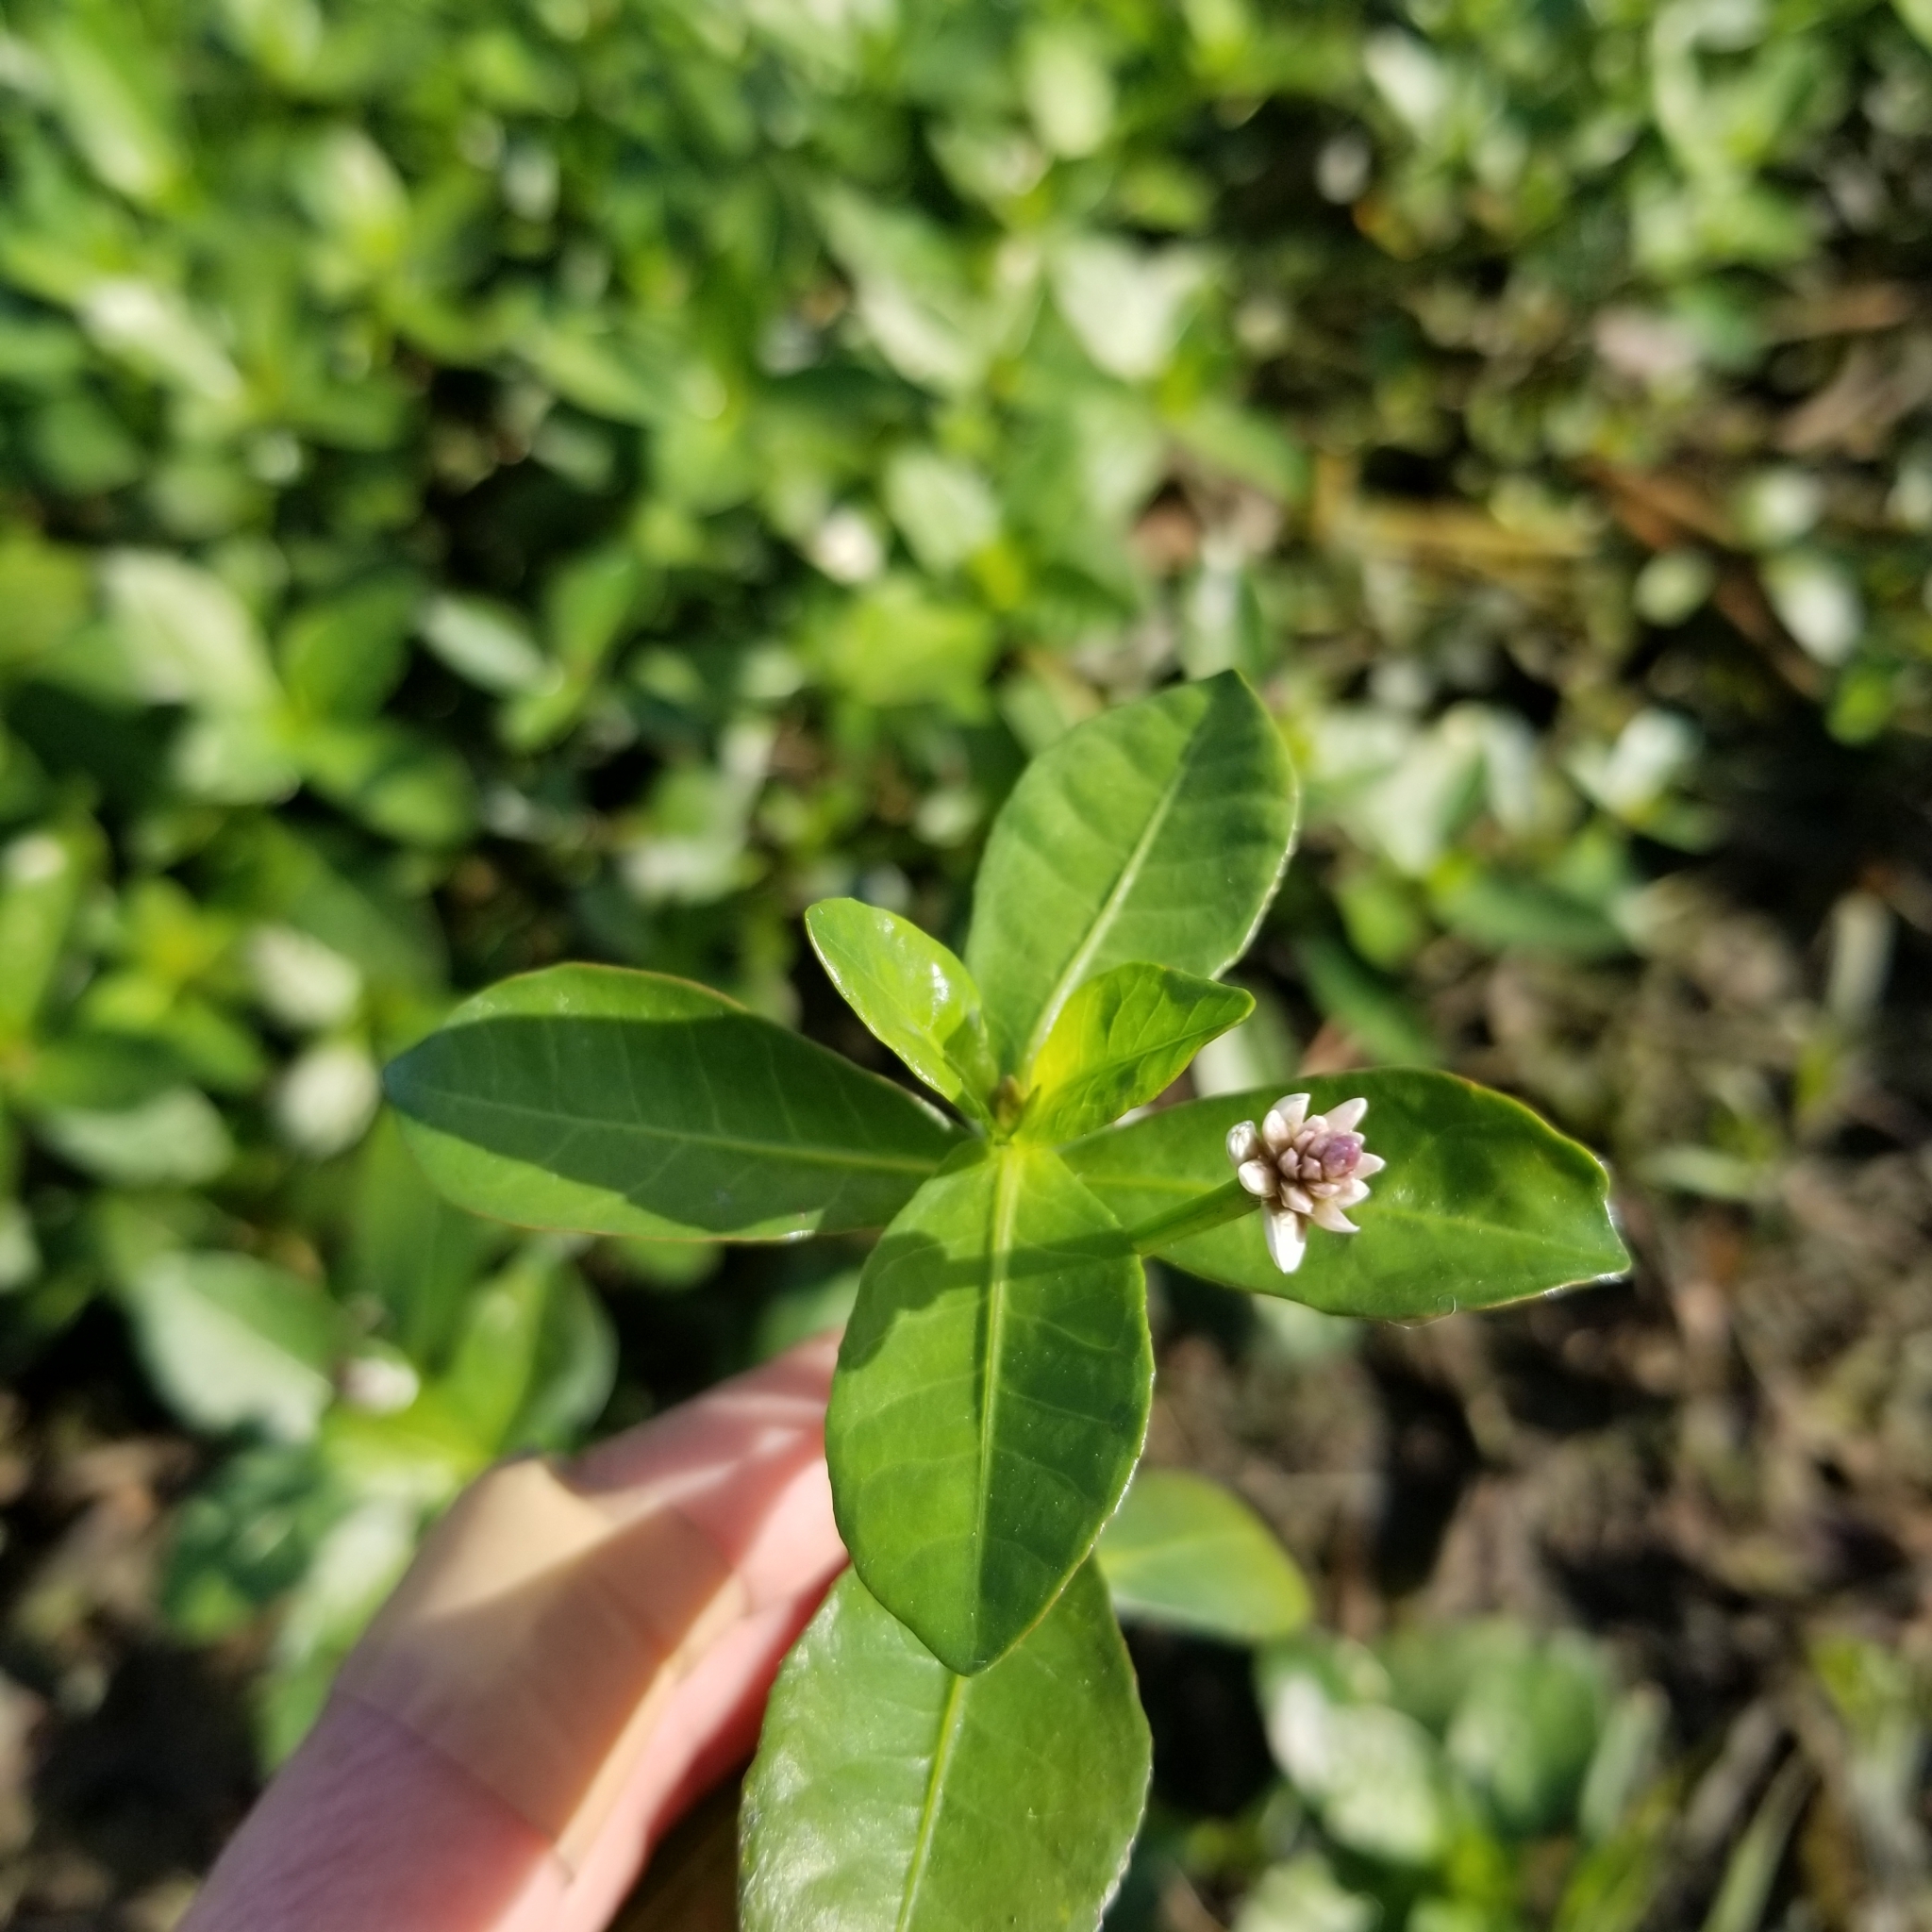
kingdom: Plantae
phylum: Tracheophyta
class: Magnoliopsida
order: Caryophyllales
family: Amaranthaceae
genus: Alternanthera
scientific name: Alternanthera philoxeroides
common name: Alligatorweed
